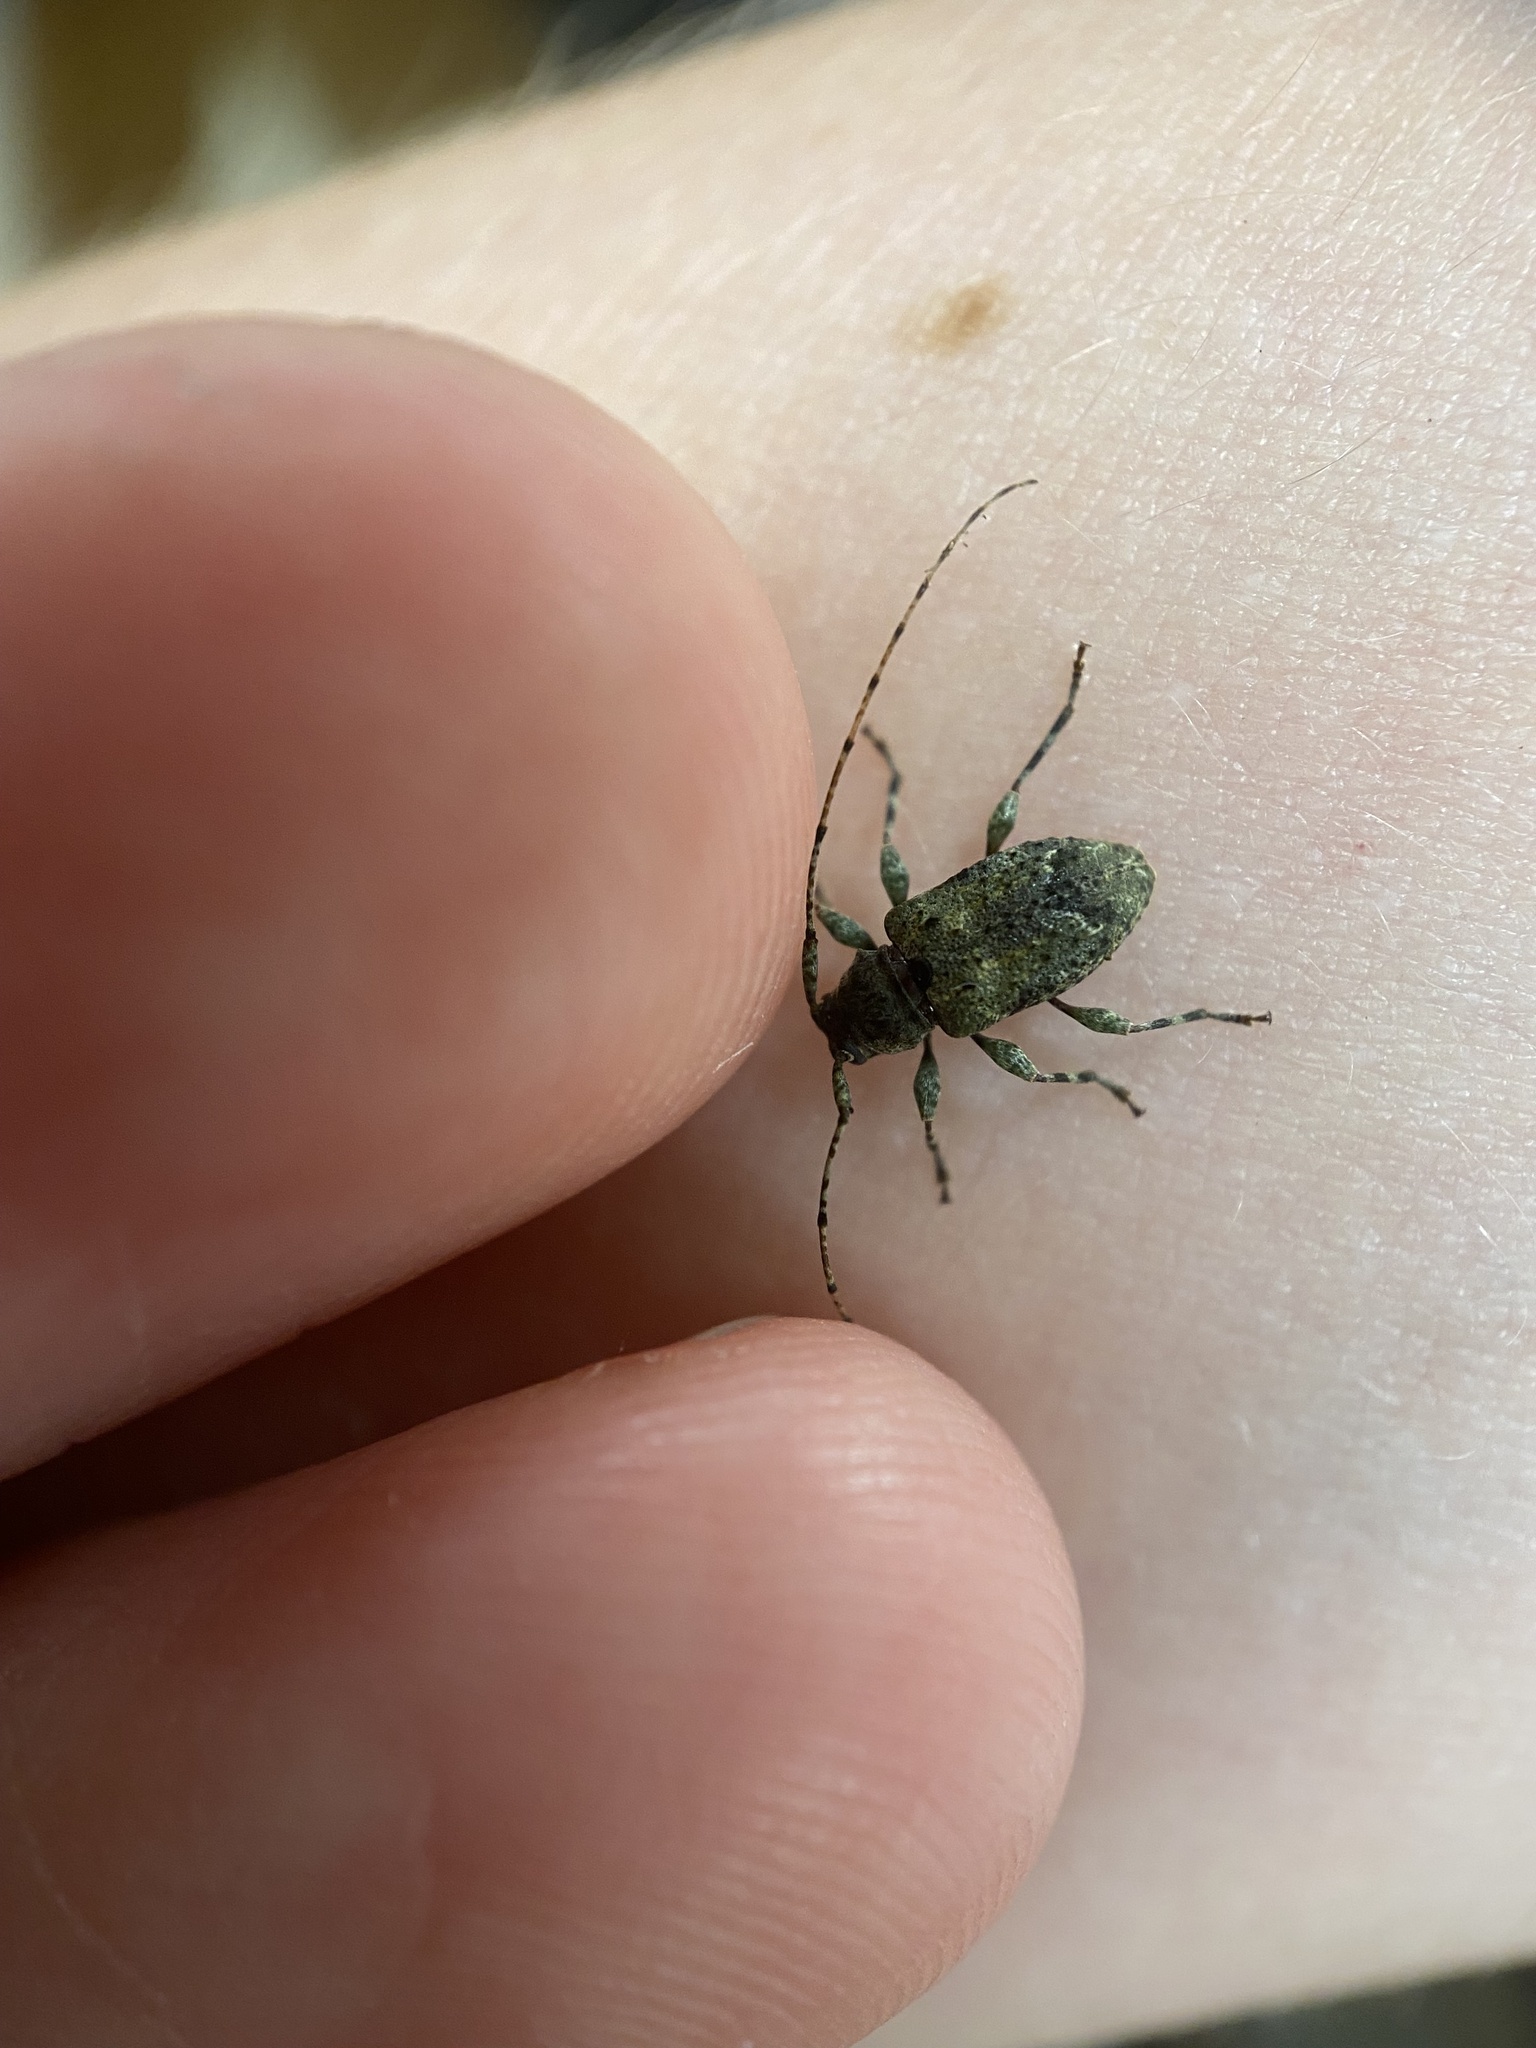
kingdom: Animalia
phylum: Arthropoda
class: Insecta
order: Coleoptera
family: Cerambycidae
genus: Astylidius
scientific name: Astylidius parvus
